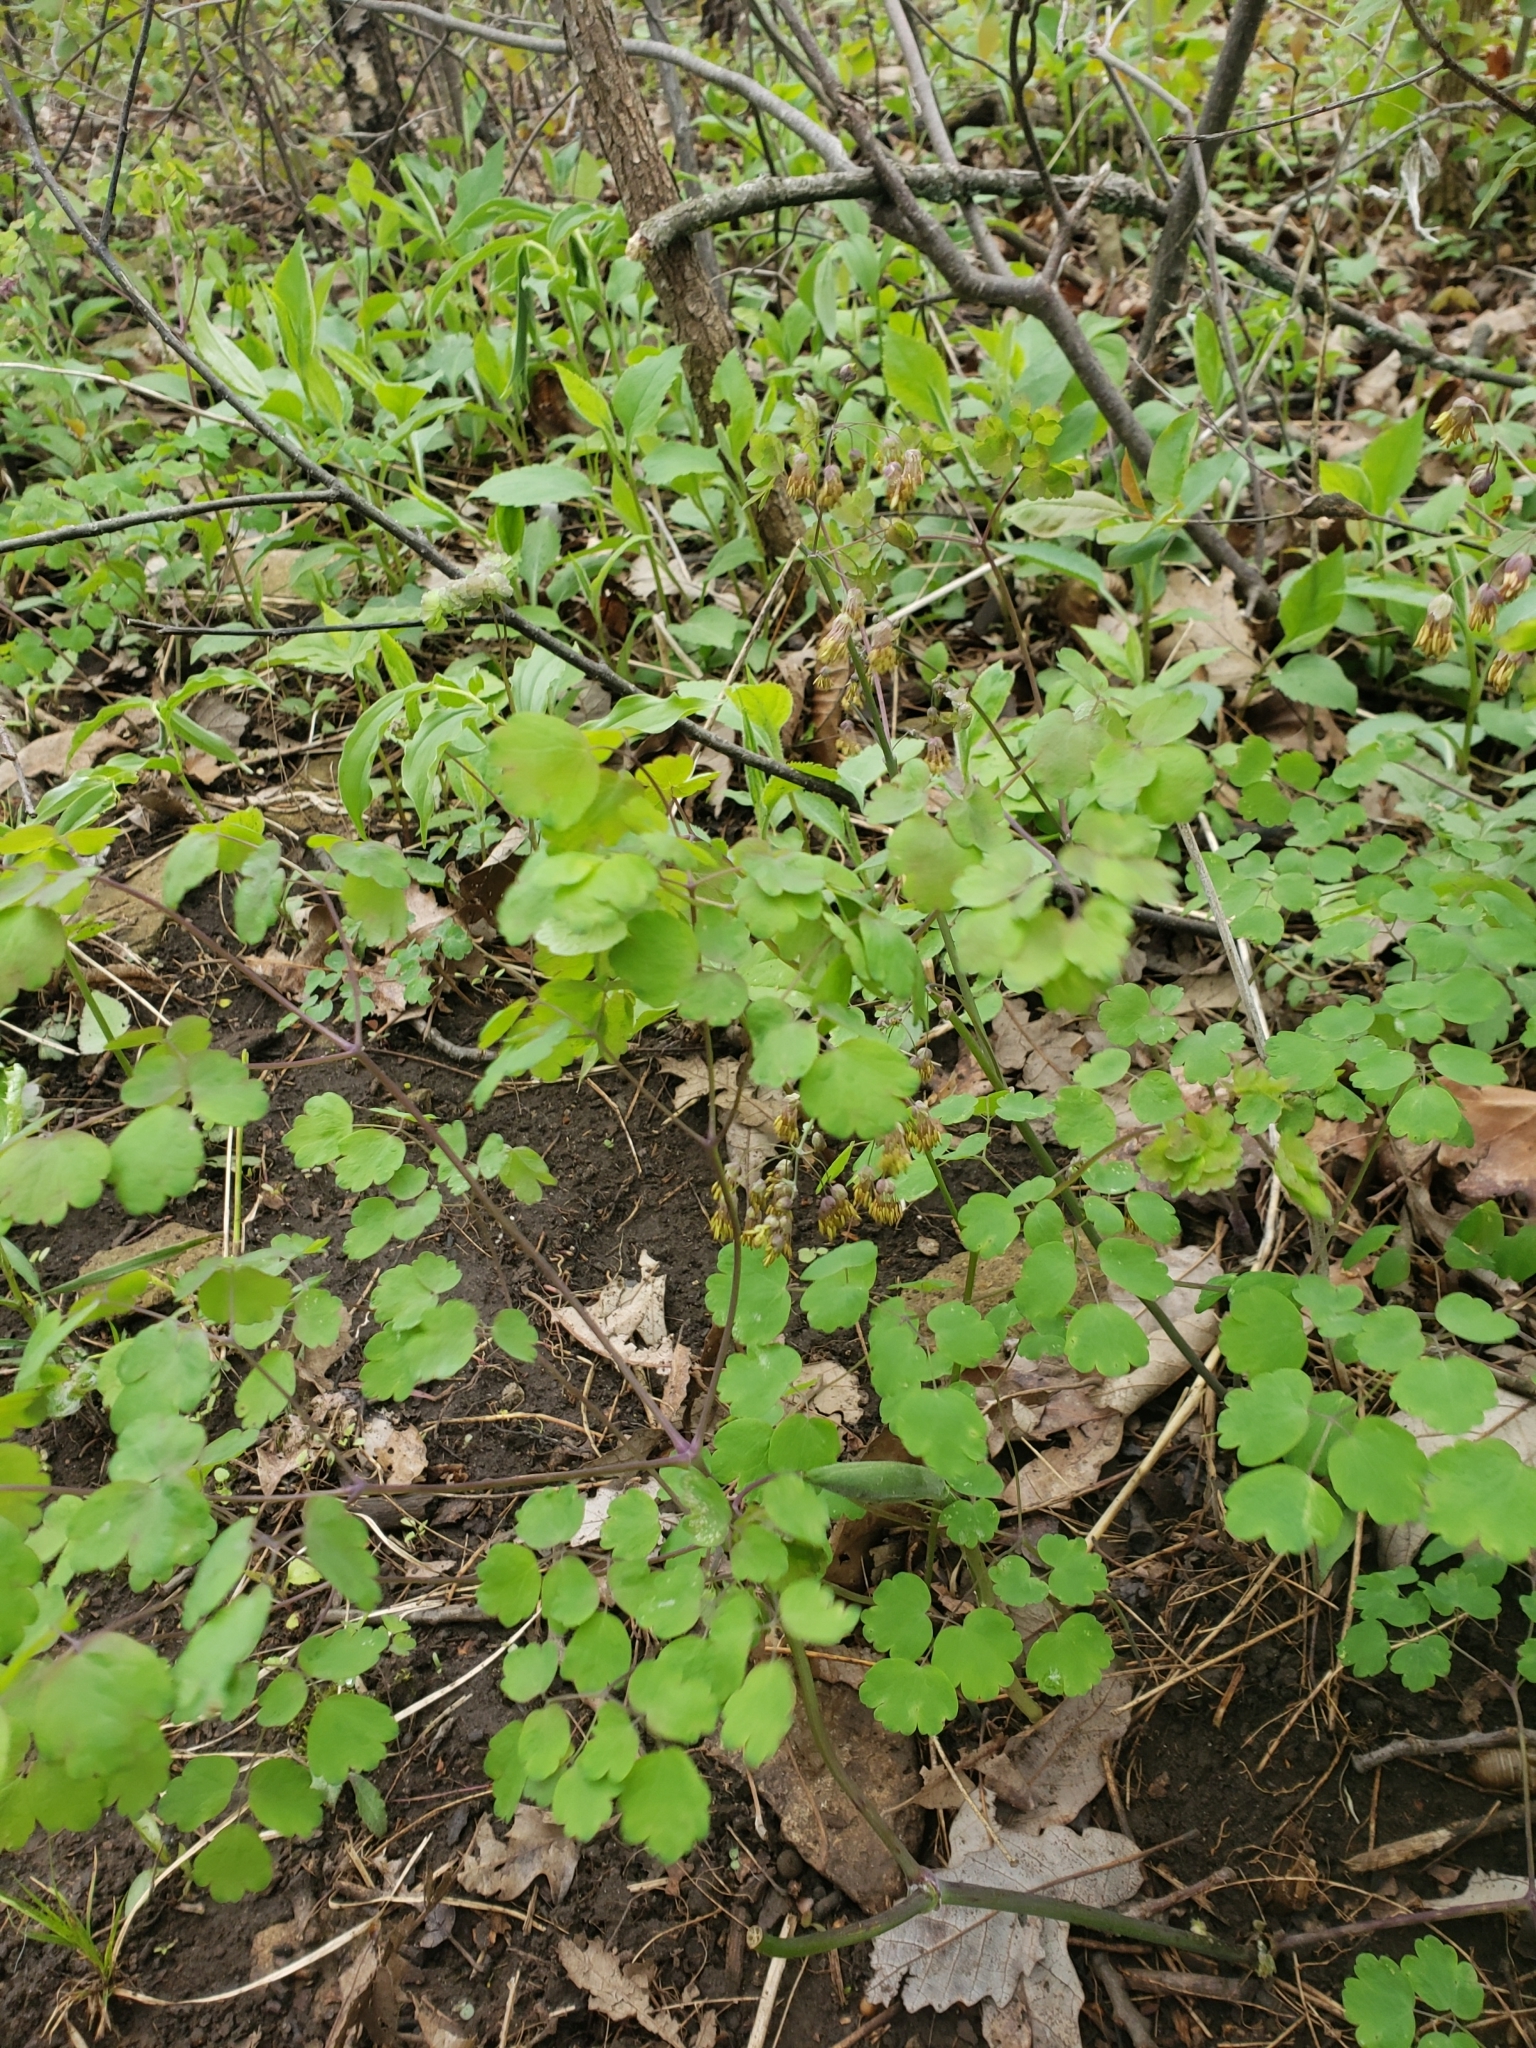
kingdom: Plantae
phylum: Tracheophyta
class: Magnoliopsida
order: Ranunculales
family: Ranunculaceae
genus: Thalictrum
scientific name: Thalictrum dioicum
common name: Early meadow-rue
